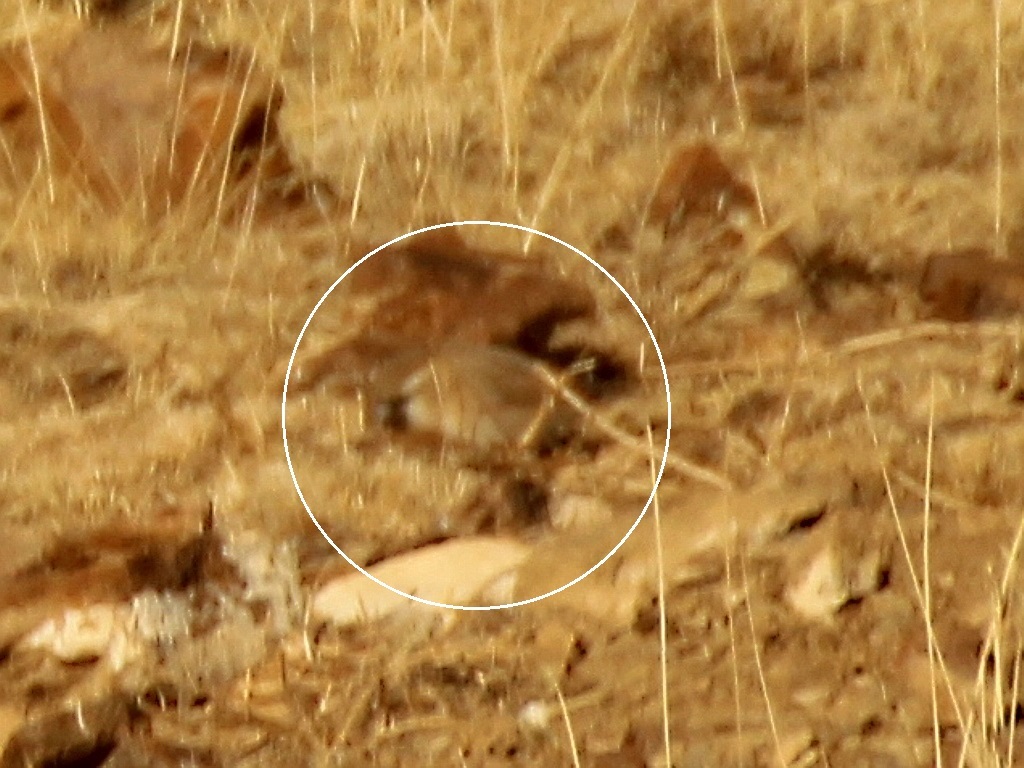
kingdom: Animalia
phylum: Chordata
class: Aves
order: Passeriformes
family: Passeridae
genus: Pyrgilauda
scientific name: Pyrgilauda davidiana
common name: Pere david's snowfinch
